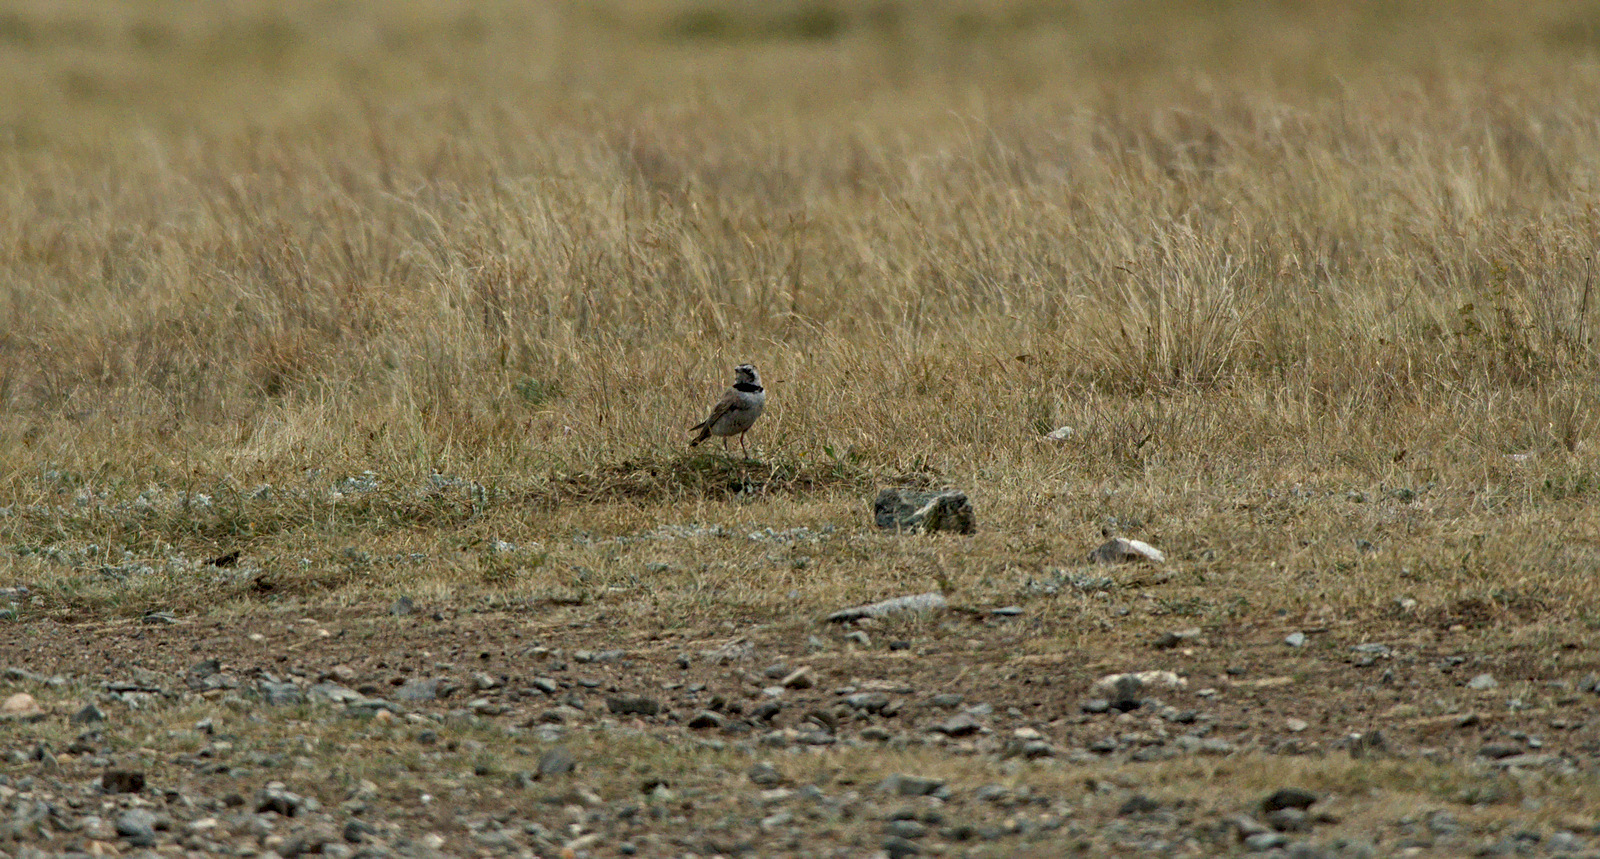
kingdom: Animalia
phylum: Chordata
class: Aves
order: Passeriformes
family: Alaudidae
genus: Eremophila
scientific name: Eremophila alpestris
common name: Horned lark
